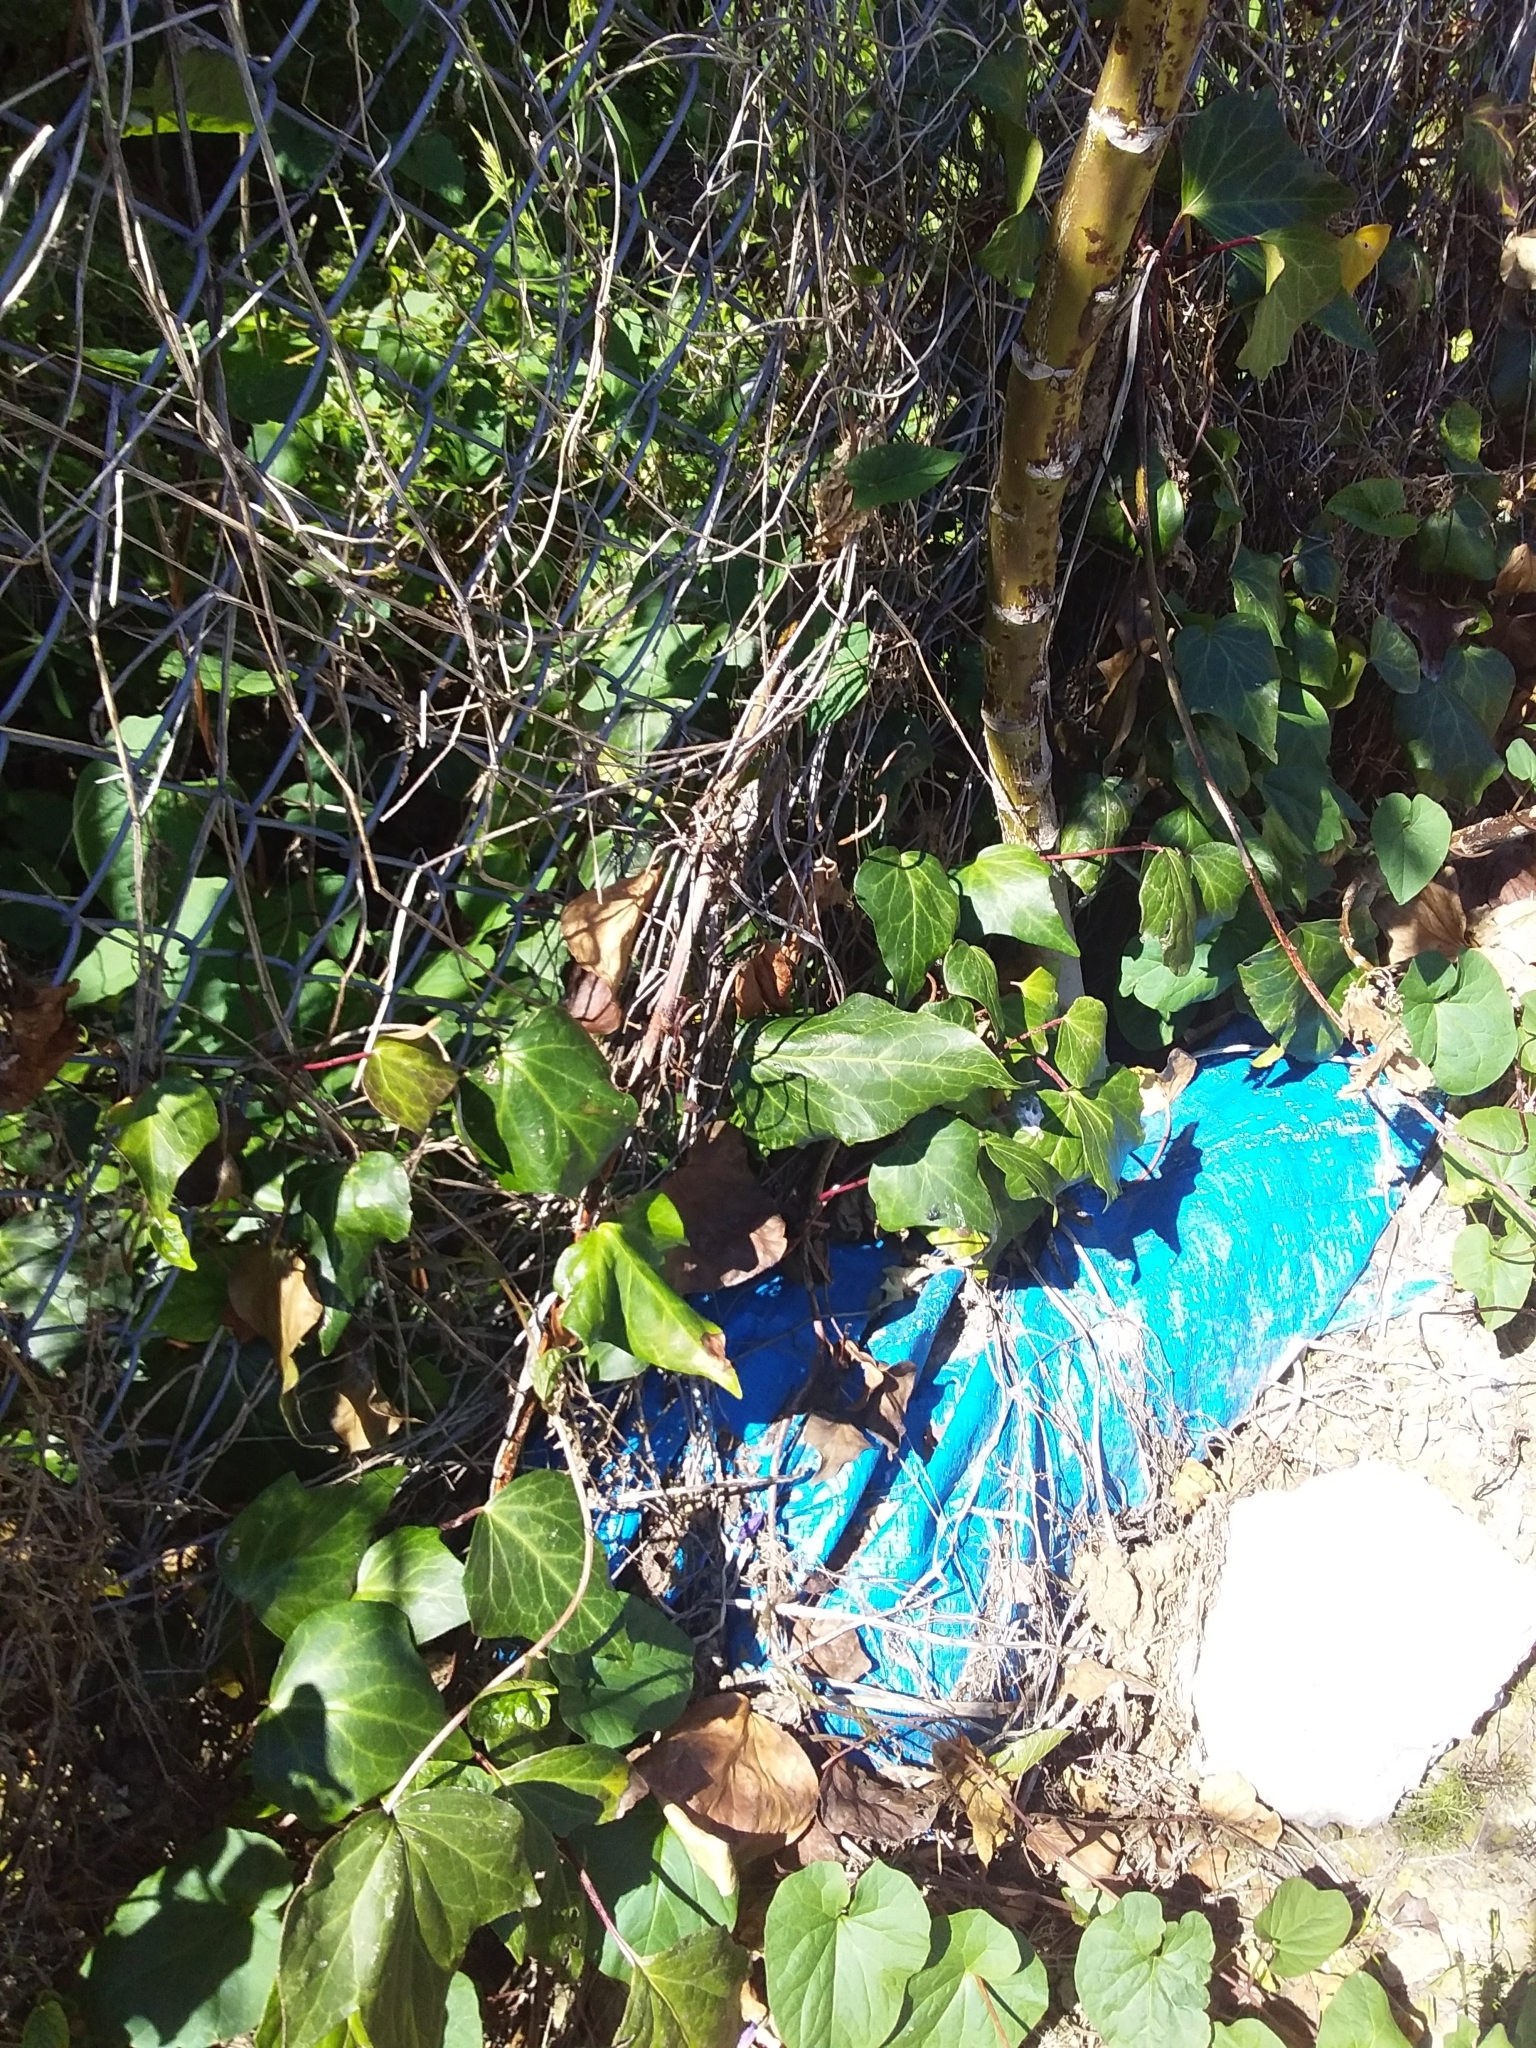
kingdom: Plantae
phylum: Tracheophyta
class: Magnoliopsida
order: Apiales
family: Araliaceae
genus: Hedera
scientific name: Hedera helix
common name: Ivy
